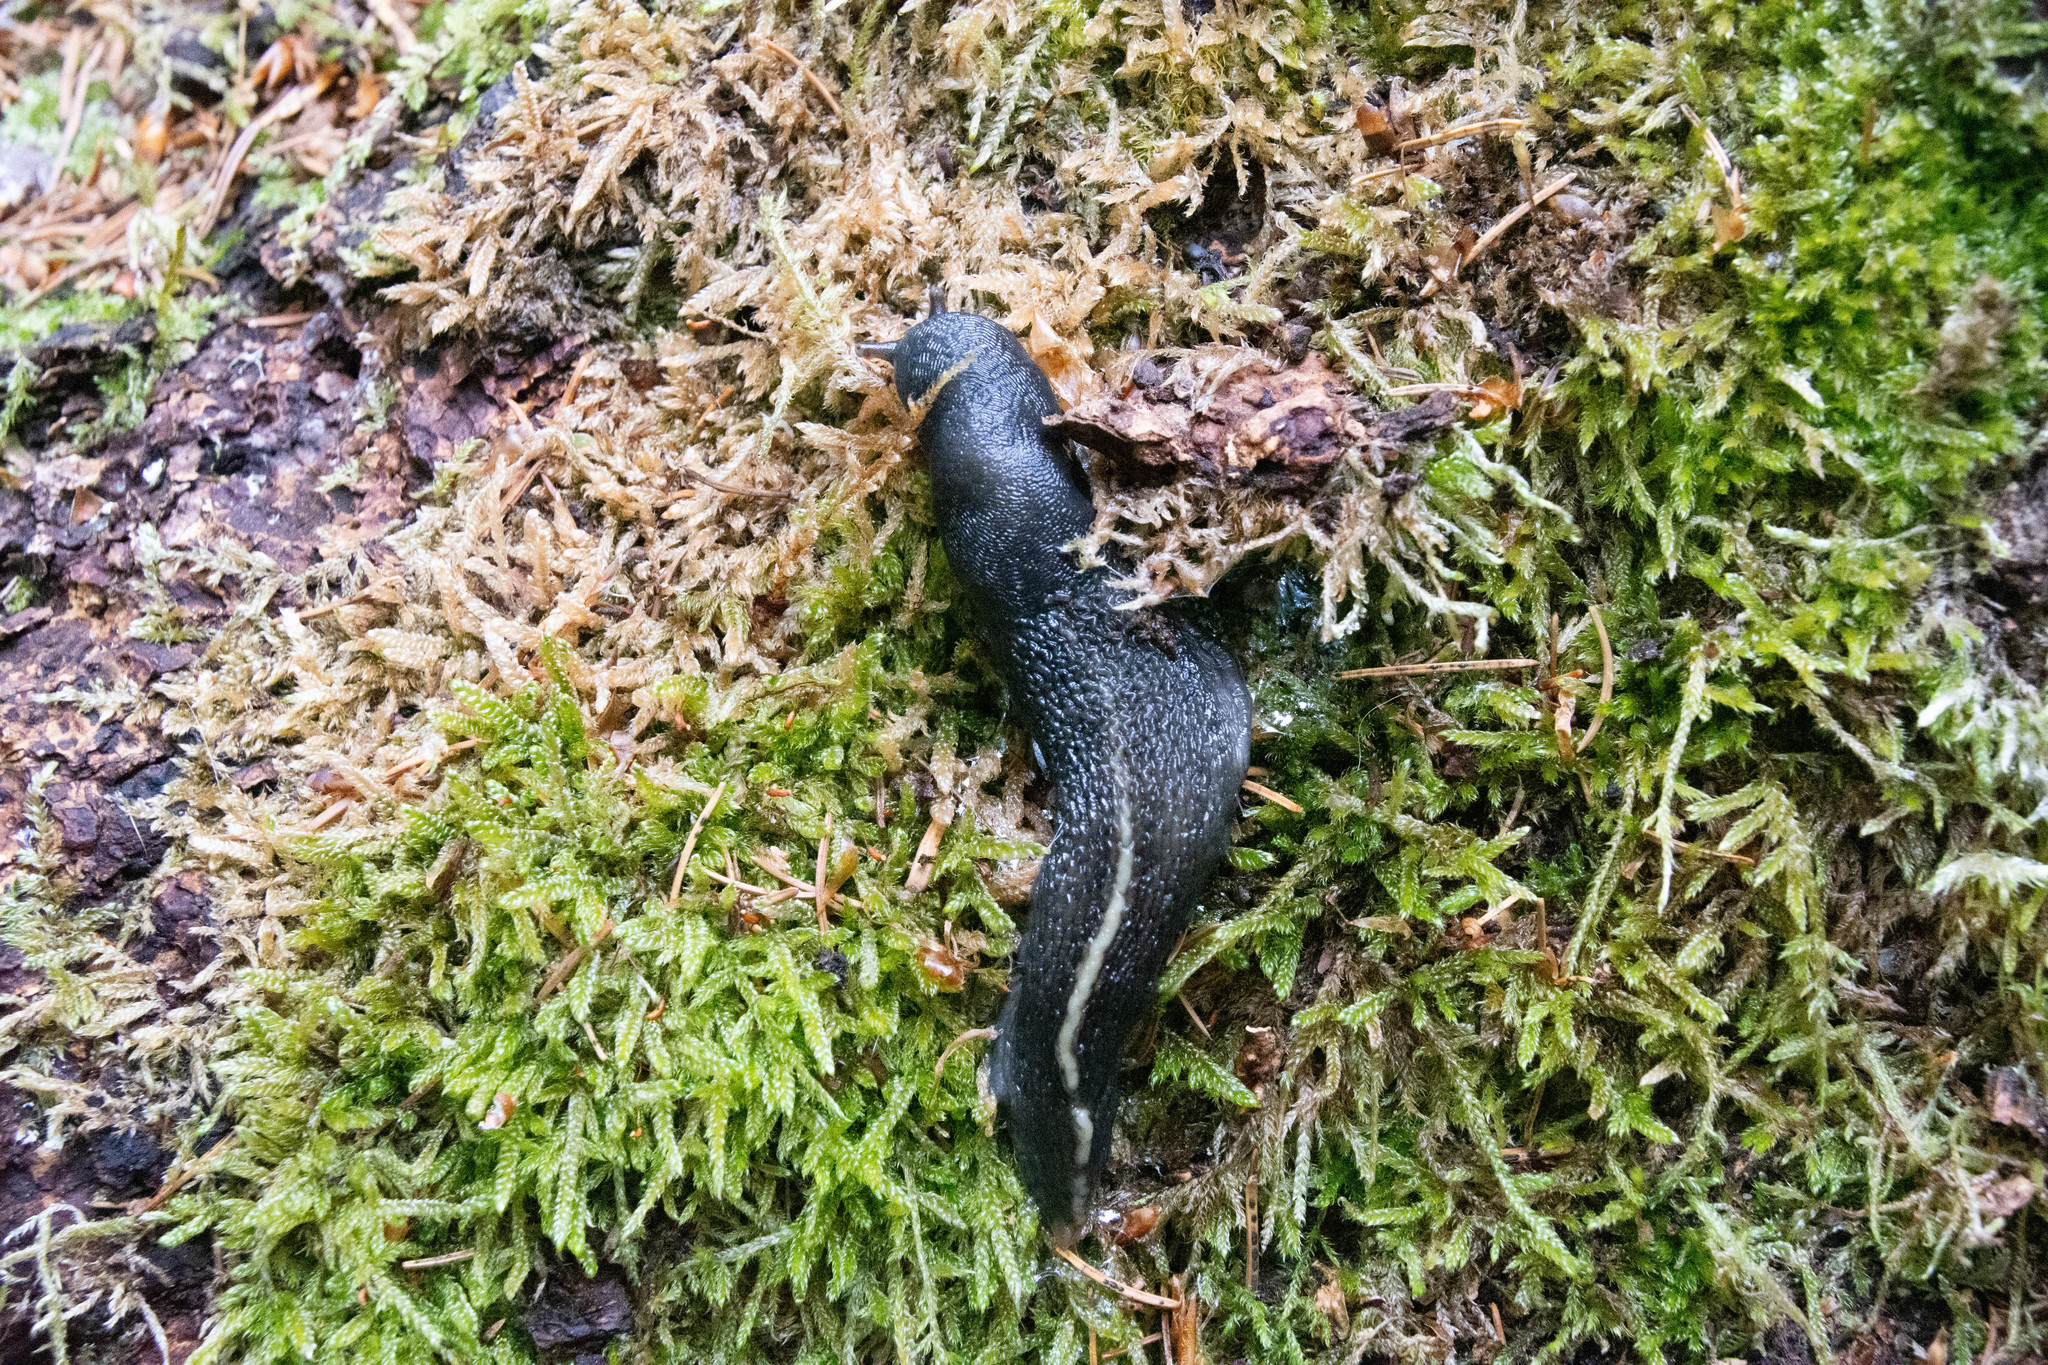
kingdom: Animalia
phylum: Mollusca
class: Gastropoda
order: Stylommatophora
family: Limacidae
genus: Limax
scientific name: Limax cinereoniger
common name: Ash-black slug
